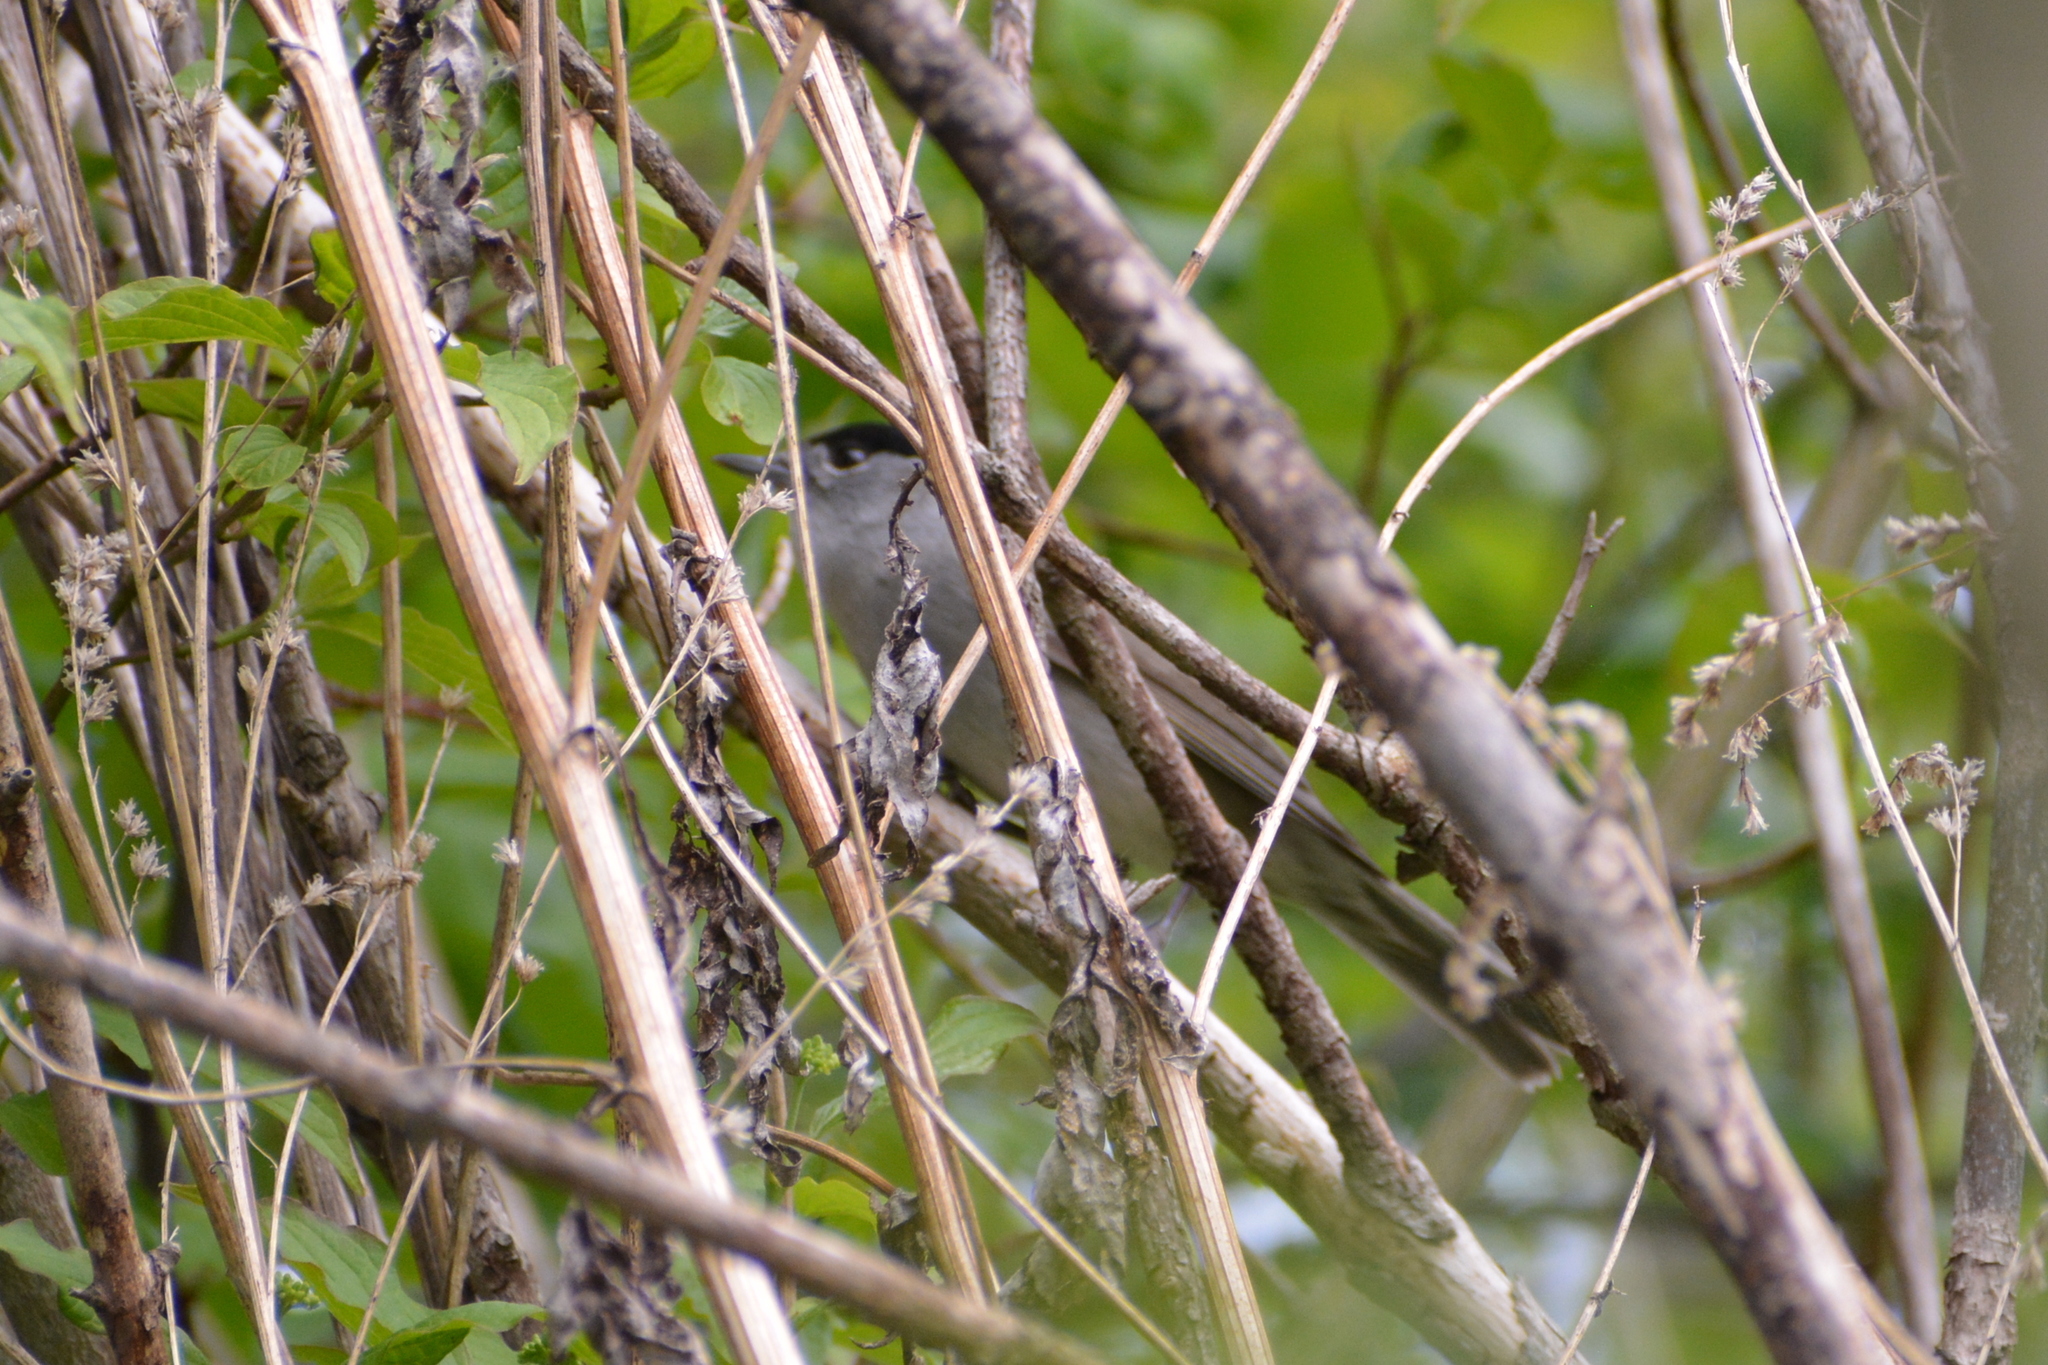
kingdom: Animalia
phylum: Chordata
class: Aves
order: Passeriformes
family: Sylviidae
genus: Sylvia
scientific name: Sylvia atricapilla
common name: Eurasian blackcap
